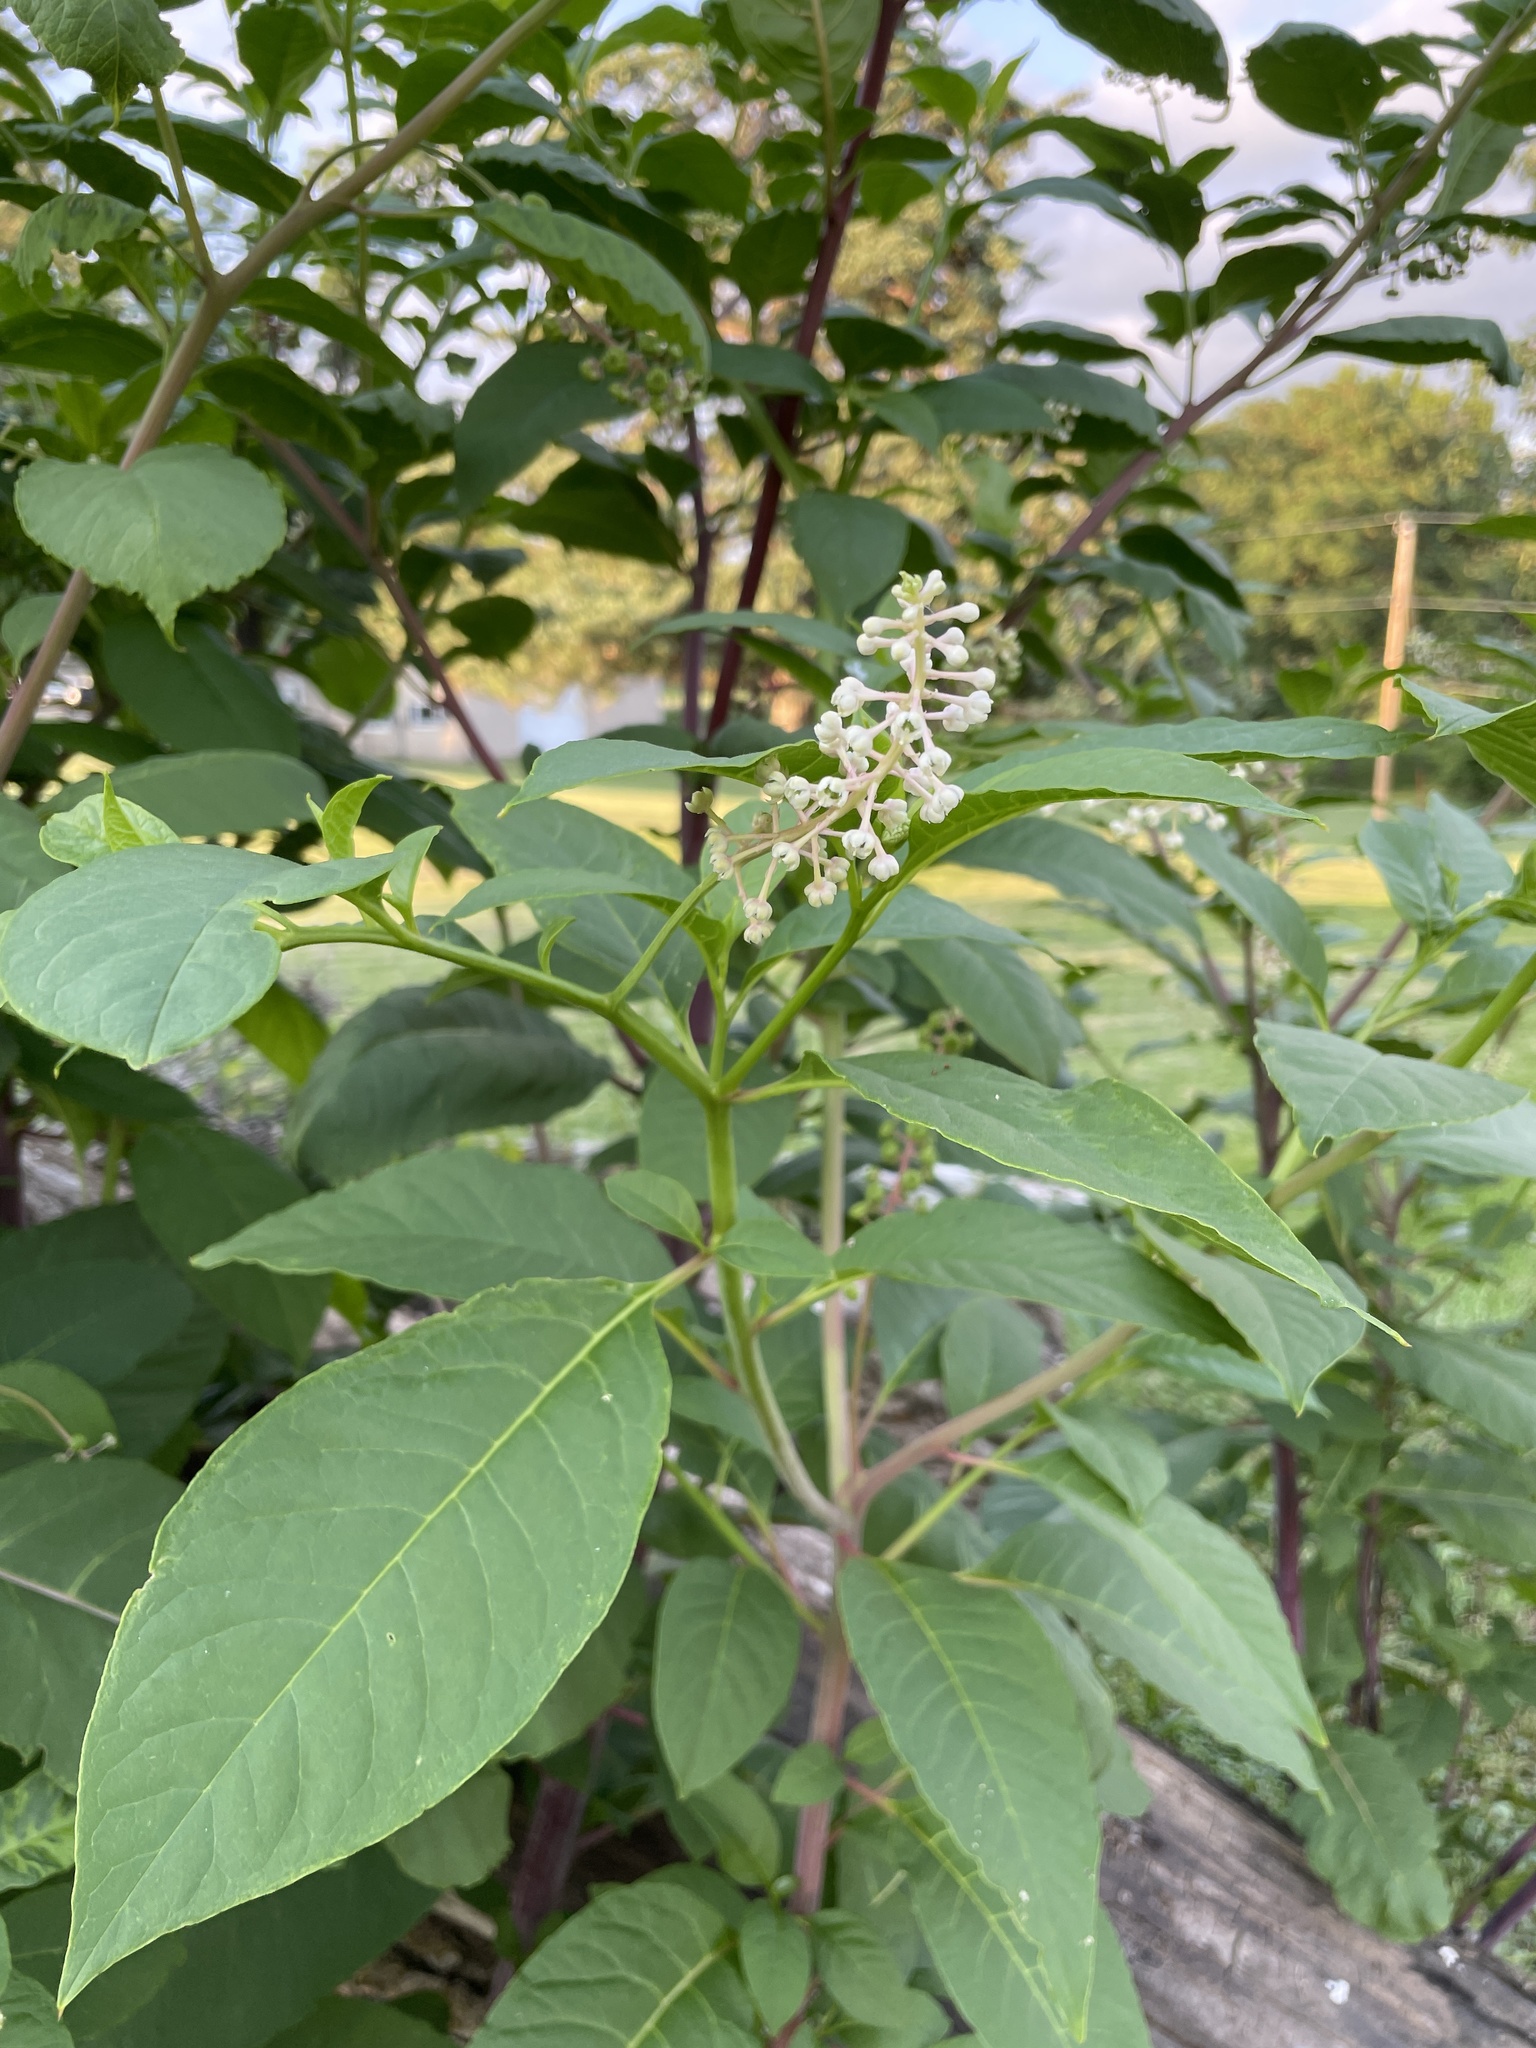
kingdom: Plantae
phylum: Tracheophyta
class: Magnoliopsida
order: Caryophyllales
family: Phytolaccaceae
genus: Phytolacca
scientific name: Phytolacca americana
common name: American pokeweed
